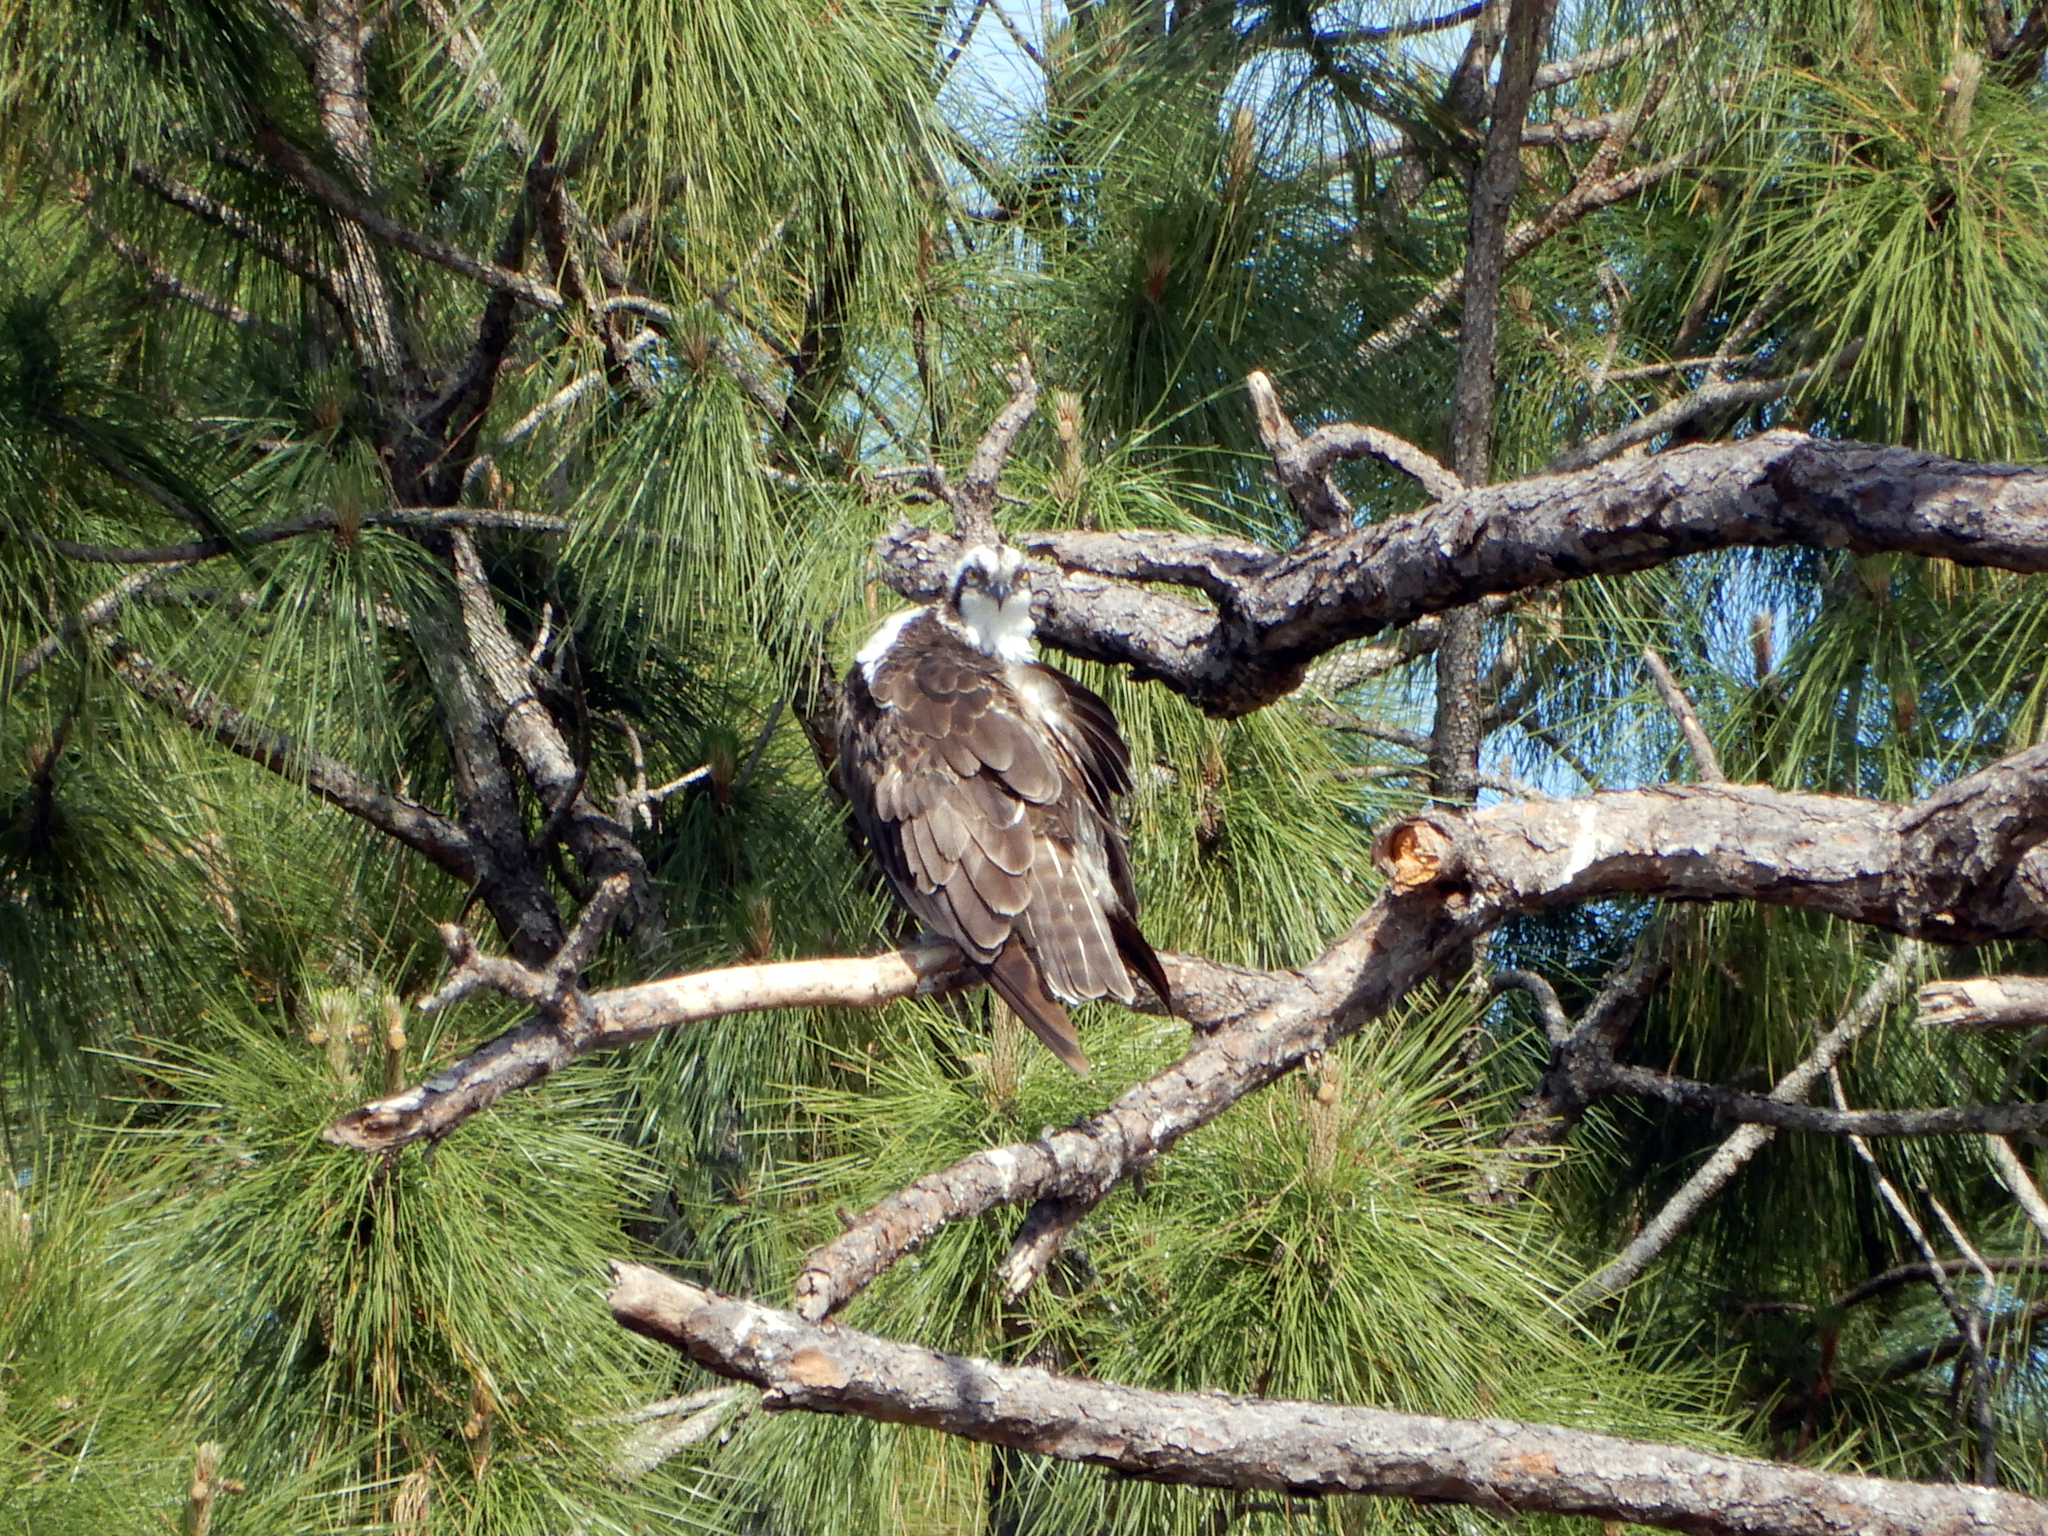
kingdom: Animalia
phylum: Chordata
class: Aves
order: Accipitriformes
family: Pandionidae
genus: Pandion
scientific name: Pandion haliaetus
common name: Osprey
